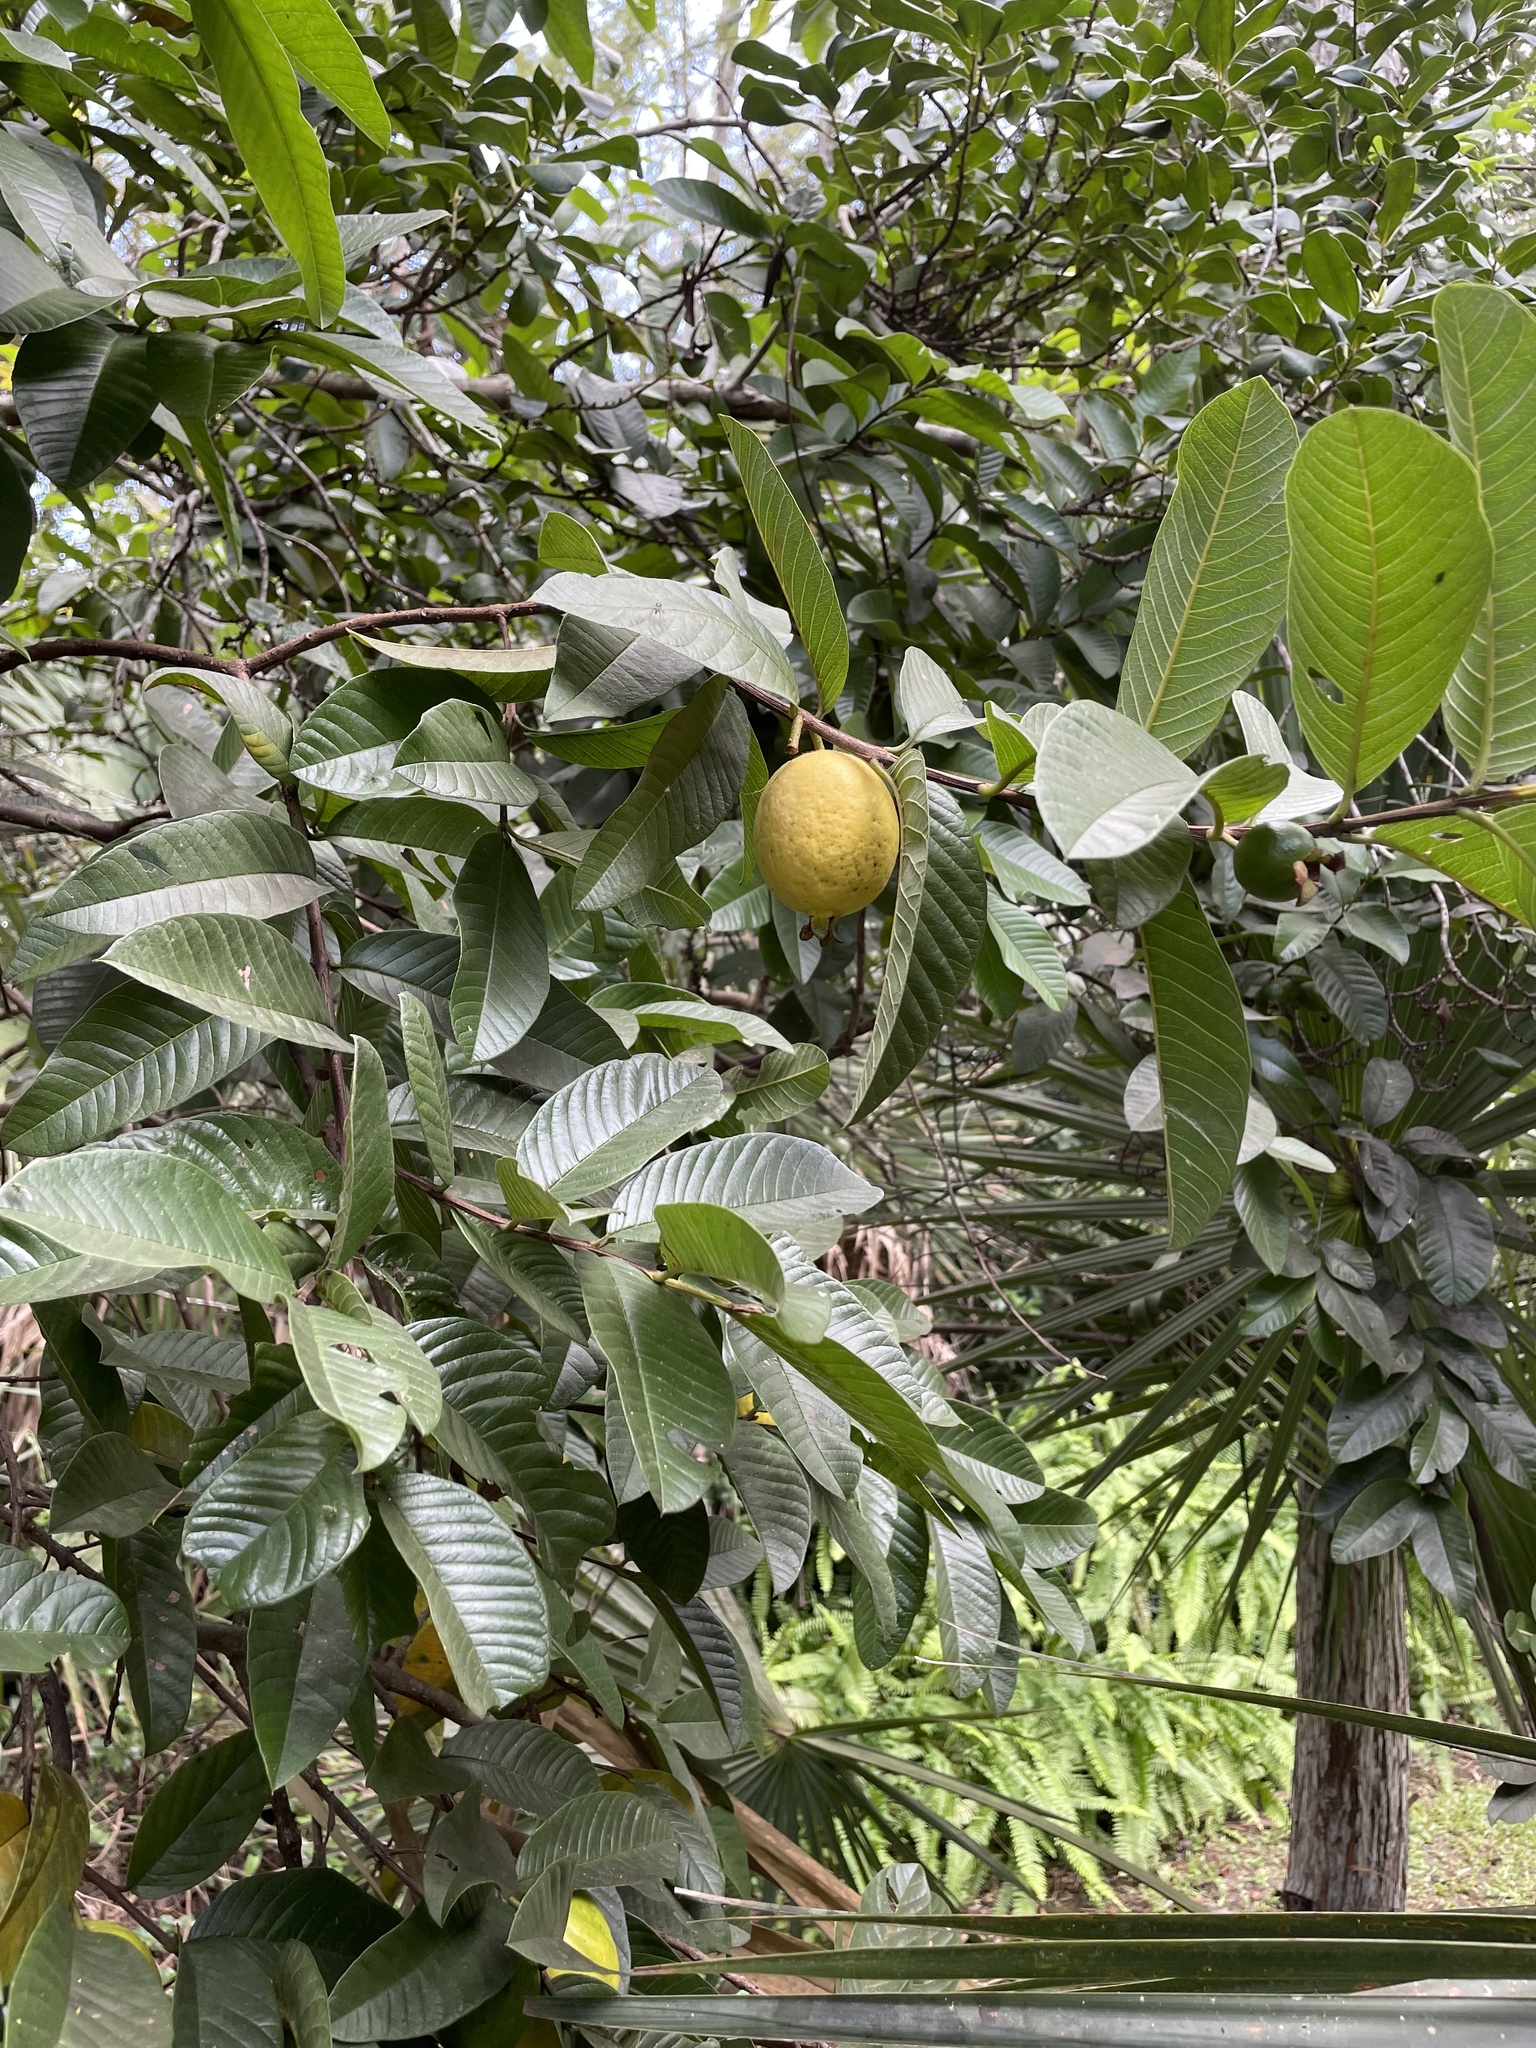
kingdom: Plantae
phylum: Tracheophyta
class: Magnoliopsida
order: Myrtales
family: Myrtaceae
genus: Psidium
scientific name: Psidium guajava
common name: Guava
